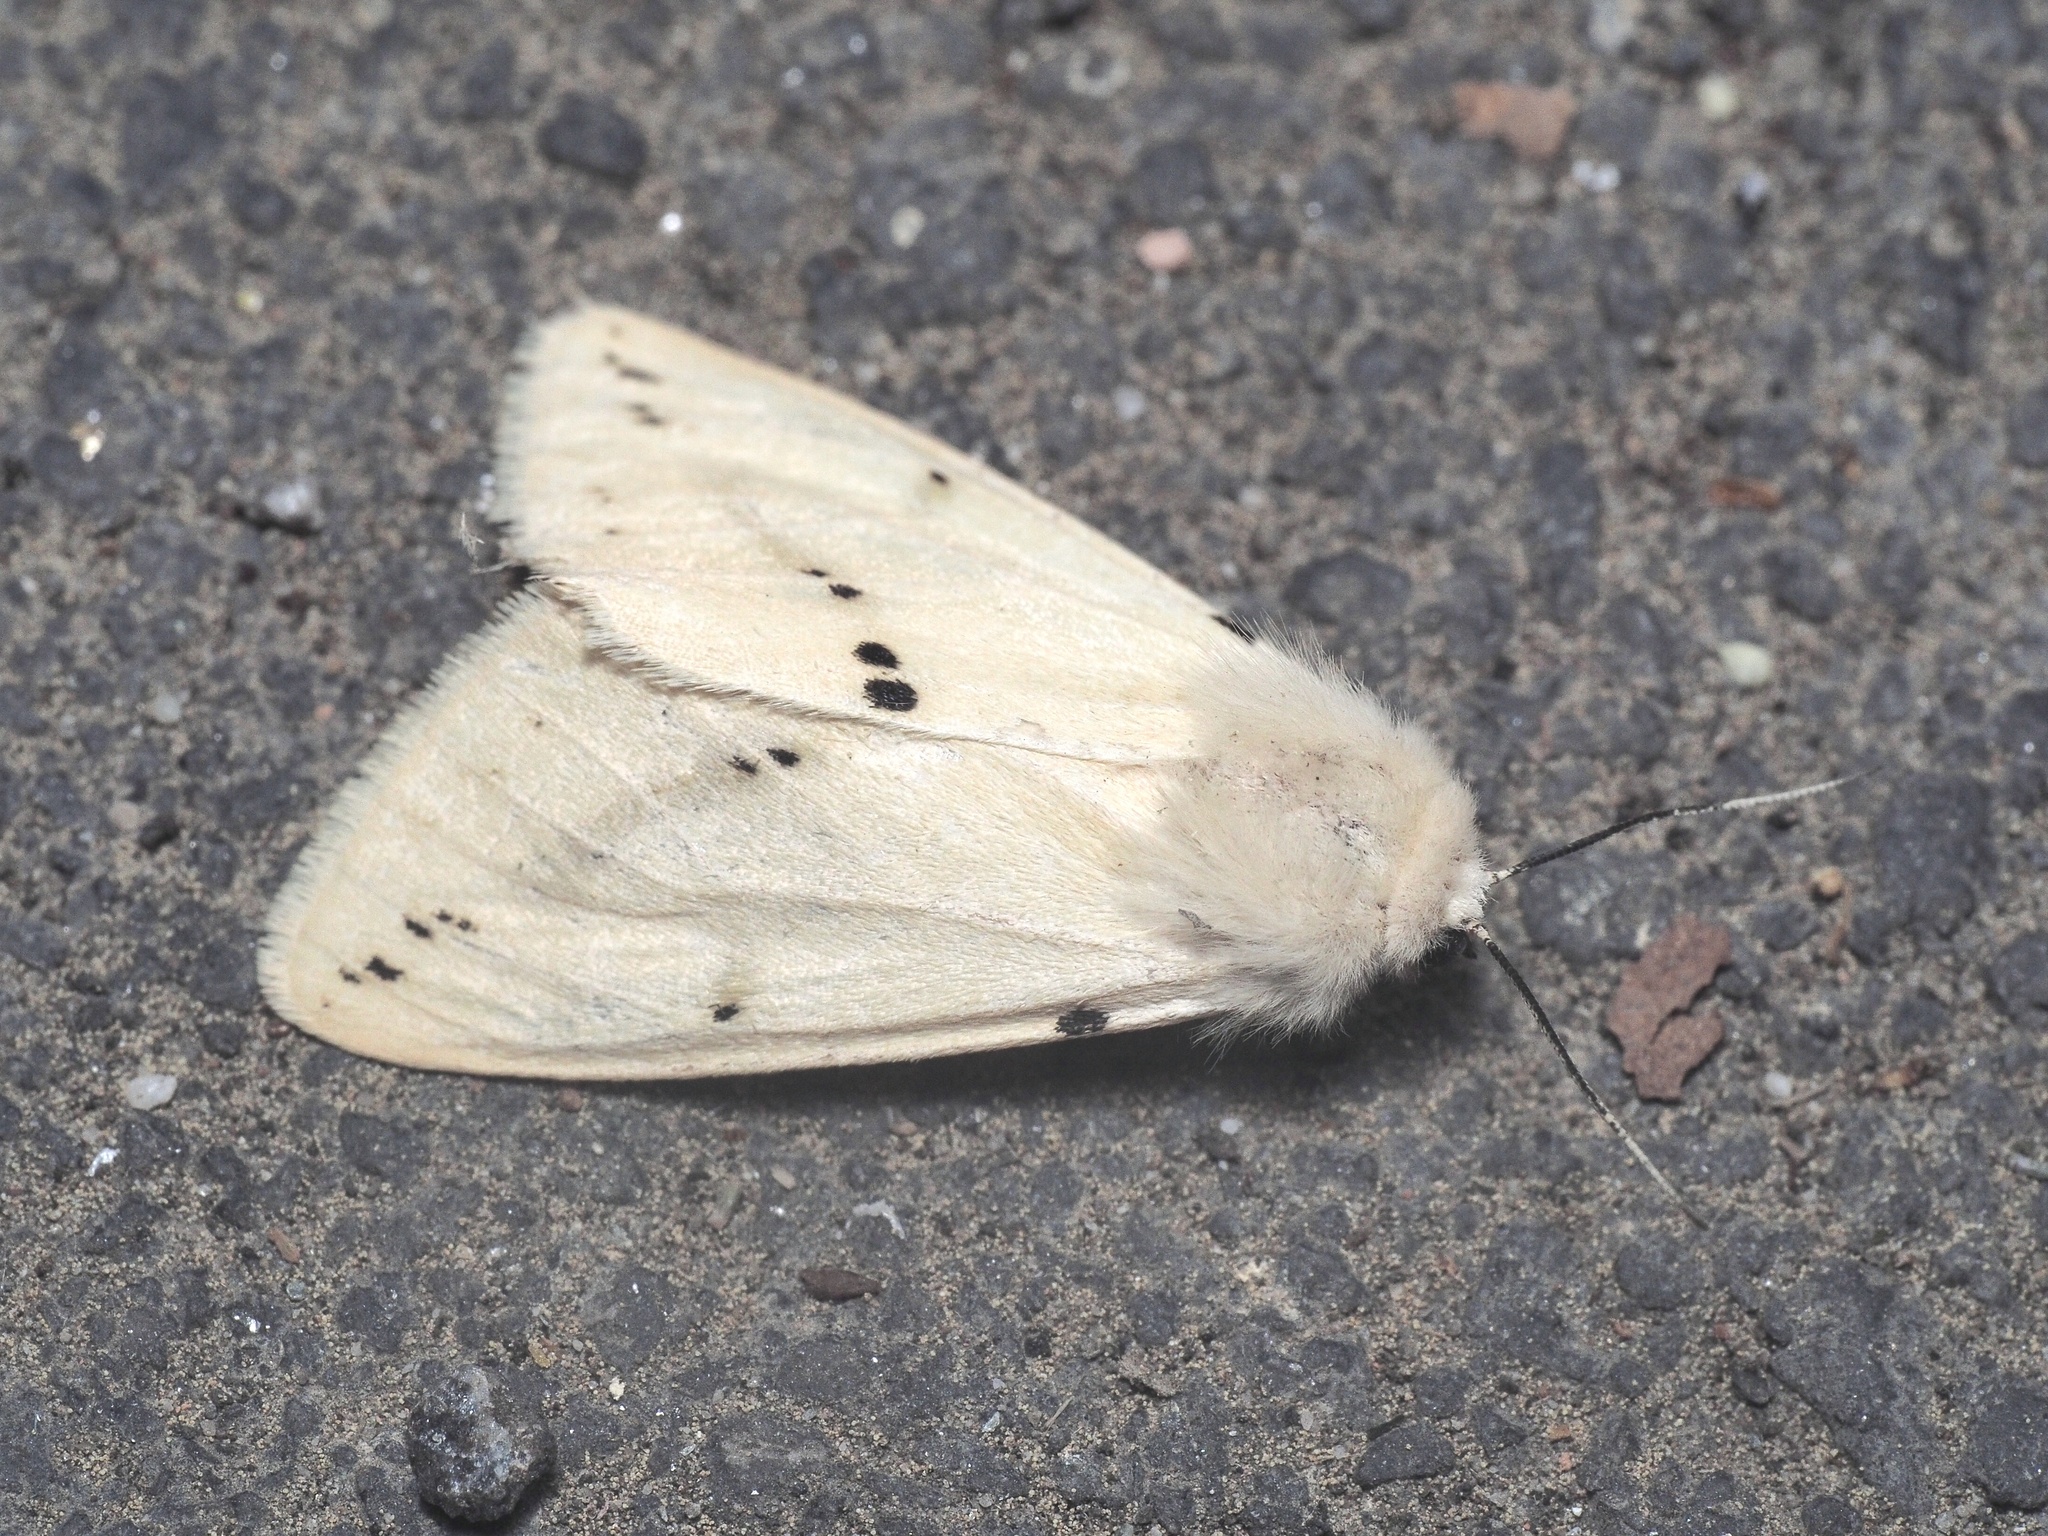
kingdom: Animalia
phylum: Arthropoda
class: Insecta
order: Lepidoptera
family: Erebidae
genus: Spilarctia
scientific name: Spilarctia lutea
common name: Buff ermine
